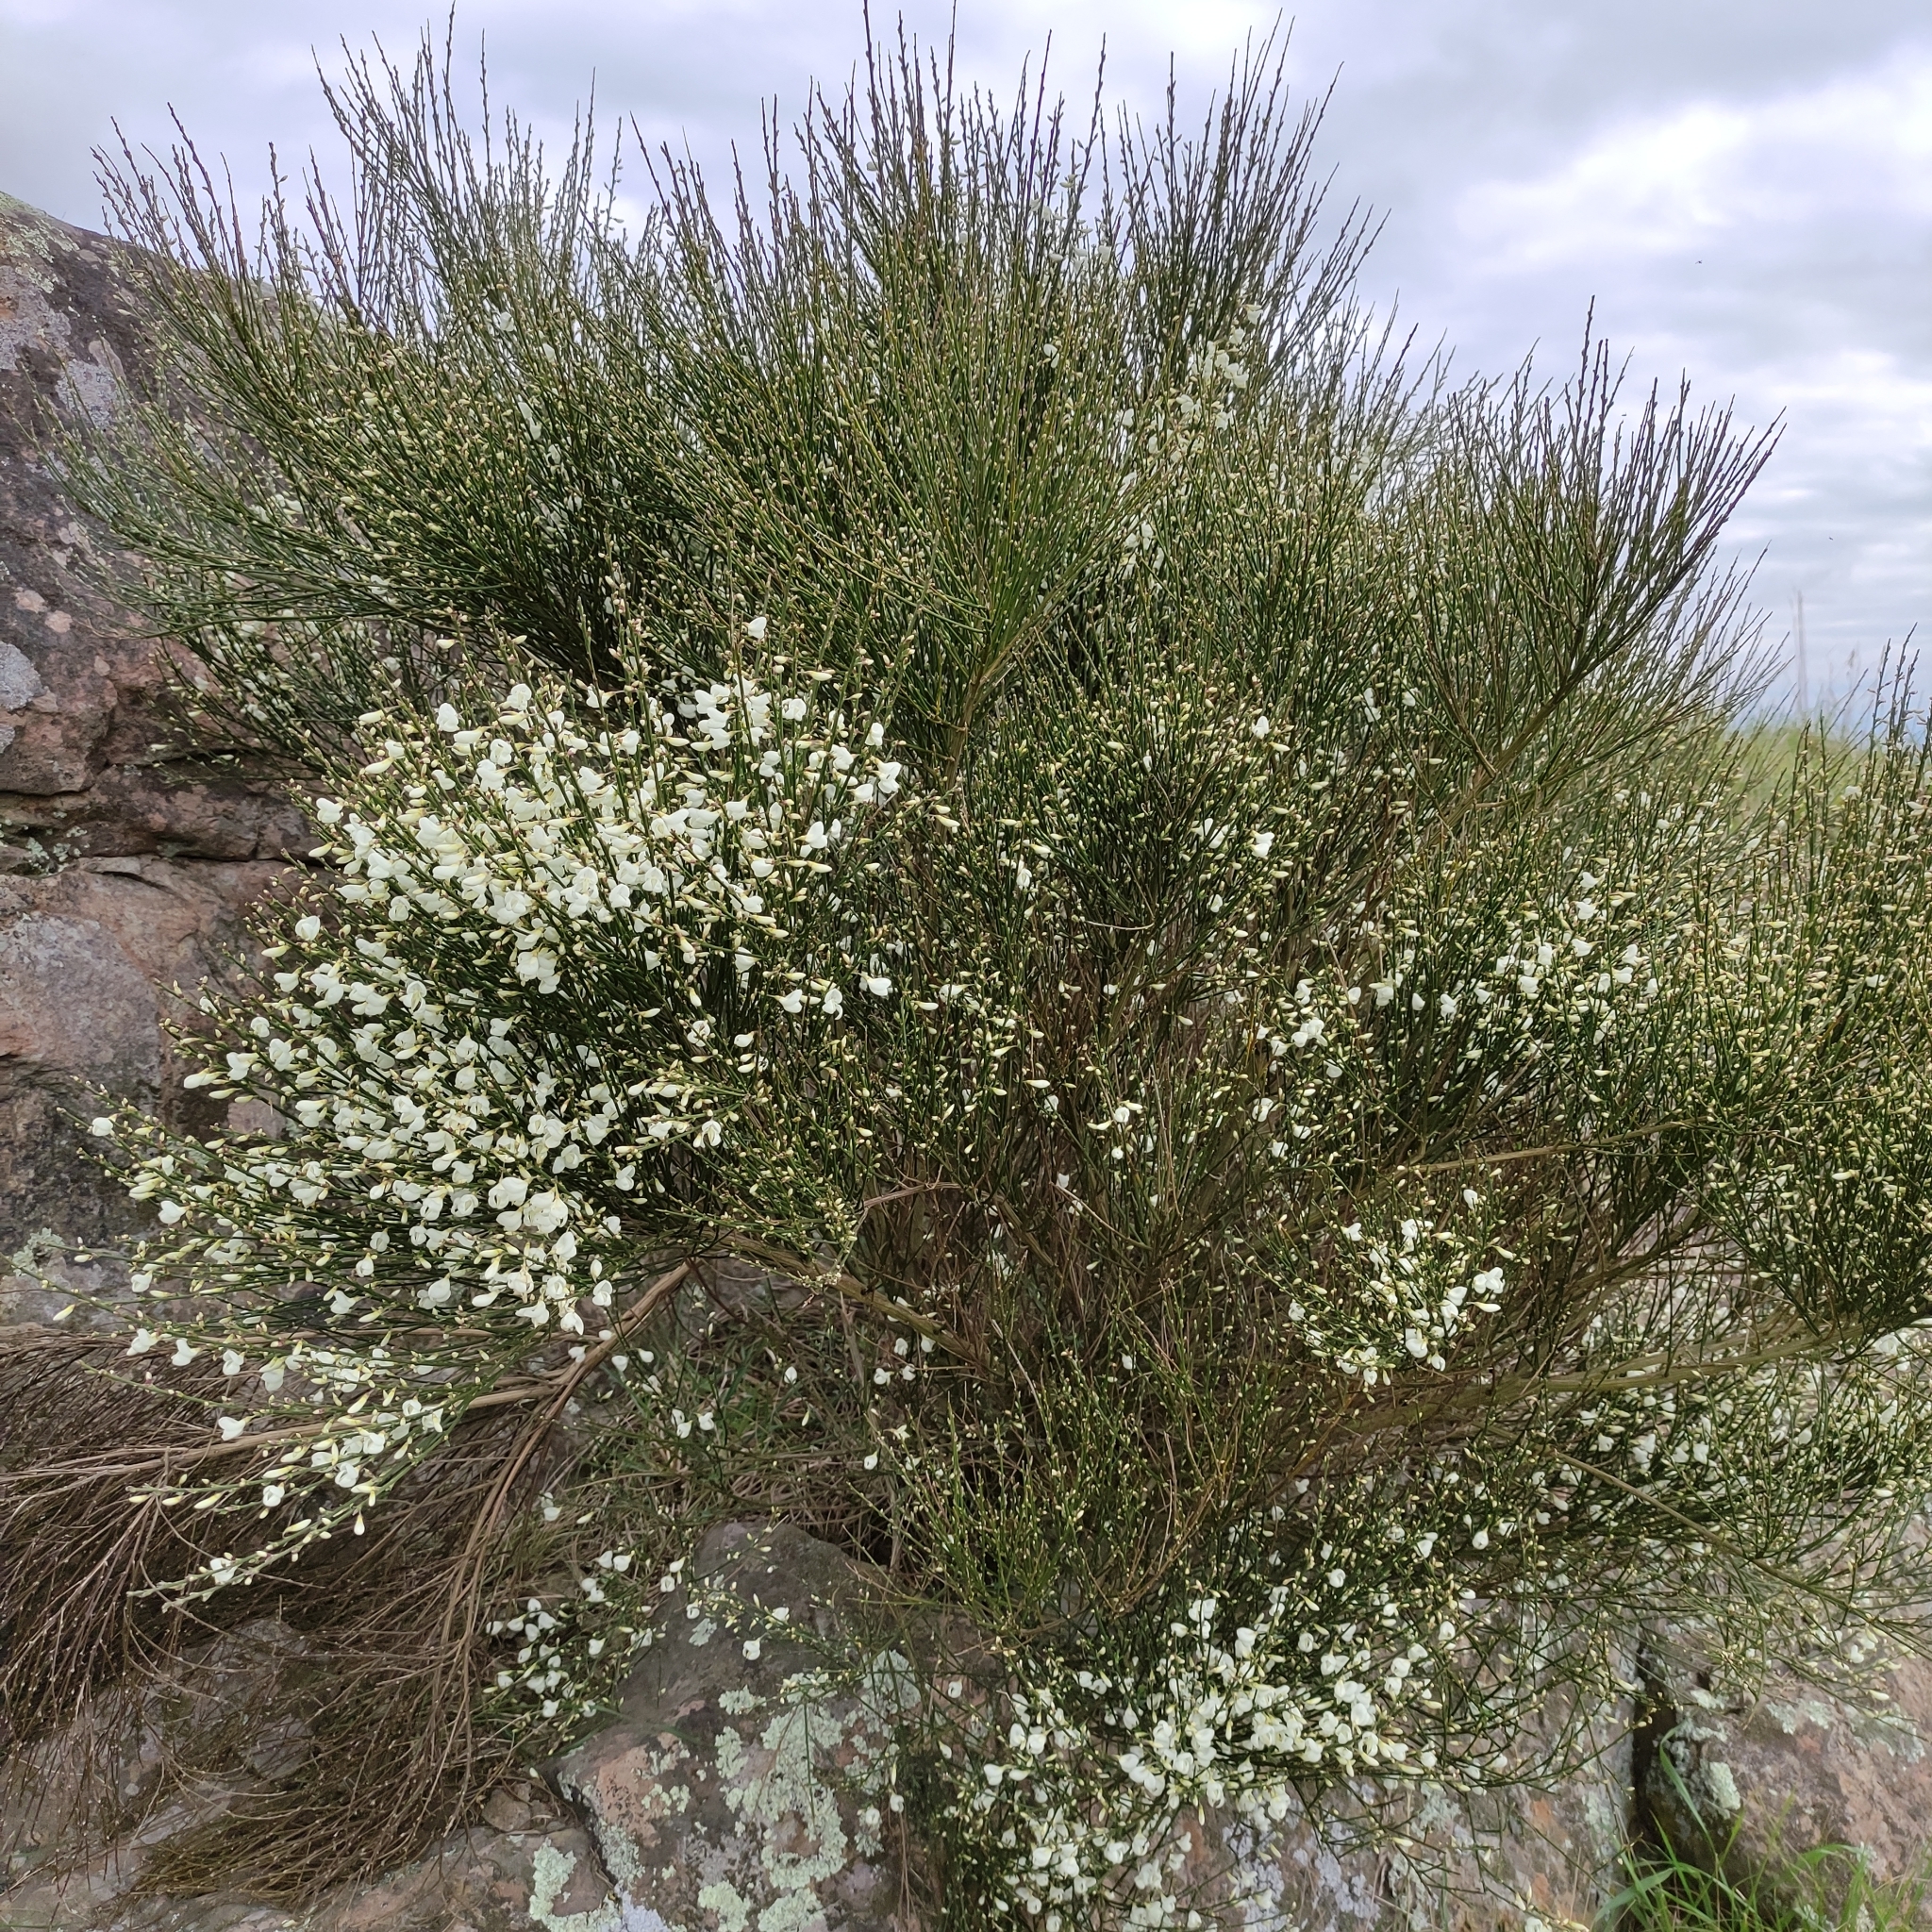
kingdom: Plantae
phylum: Tracheophyta
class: Magnoliopsida
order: Fabales
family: Fabaceae
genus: Cytisus
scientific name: Cytisus multiflorus
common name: White broom
